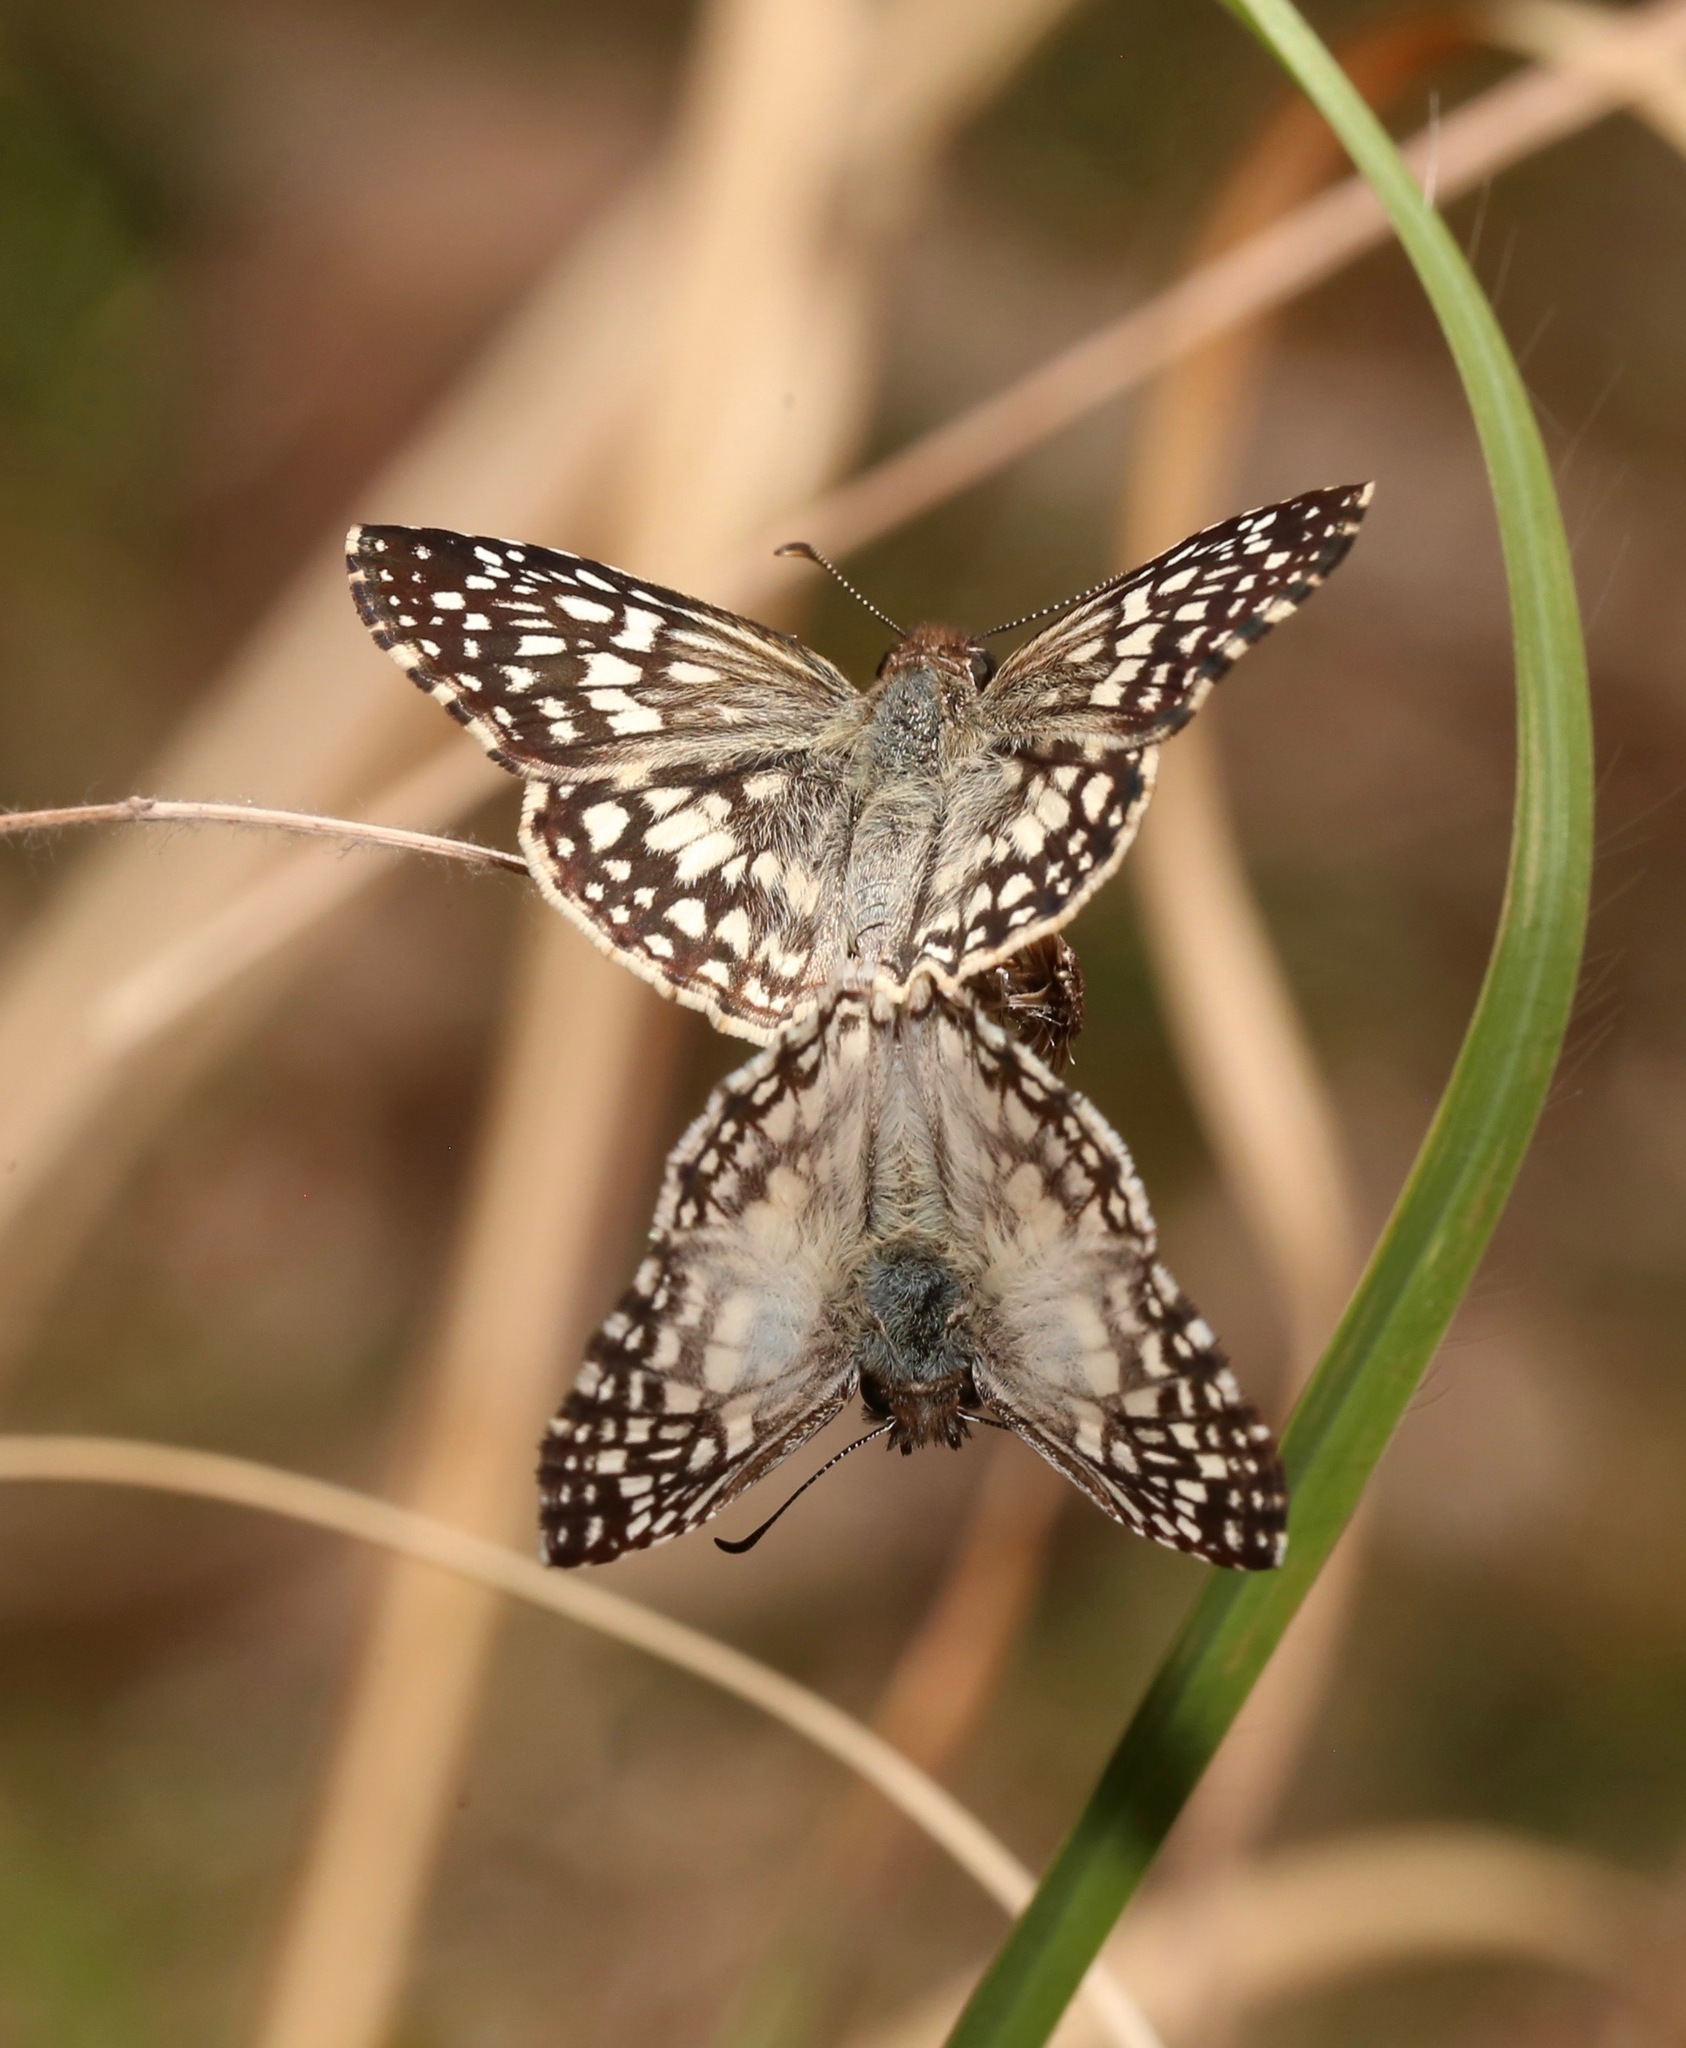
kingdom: Animalia
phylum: Arthropoda
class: Insecta
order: Lepidoptera
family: Hesperiidae
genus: Pyrgus
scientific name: Pyrgus oileus
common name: Tropical checkered-skipper
